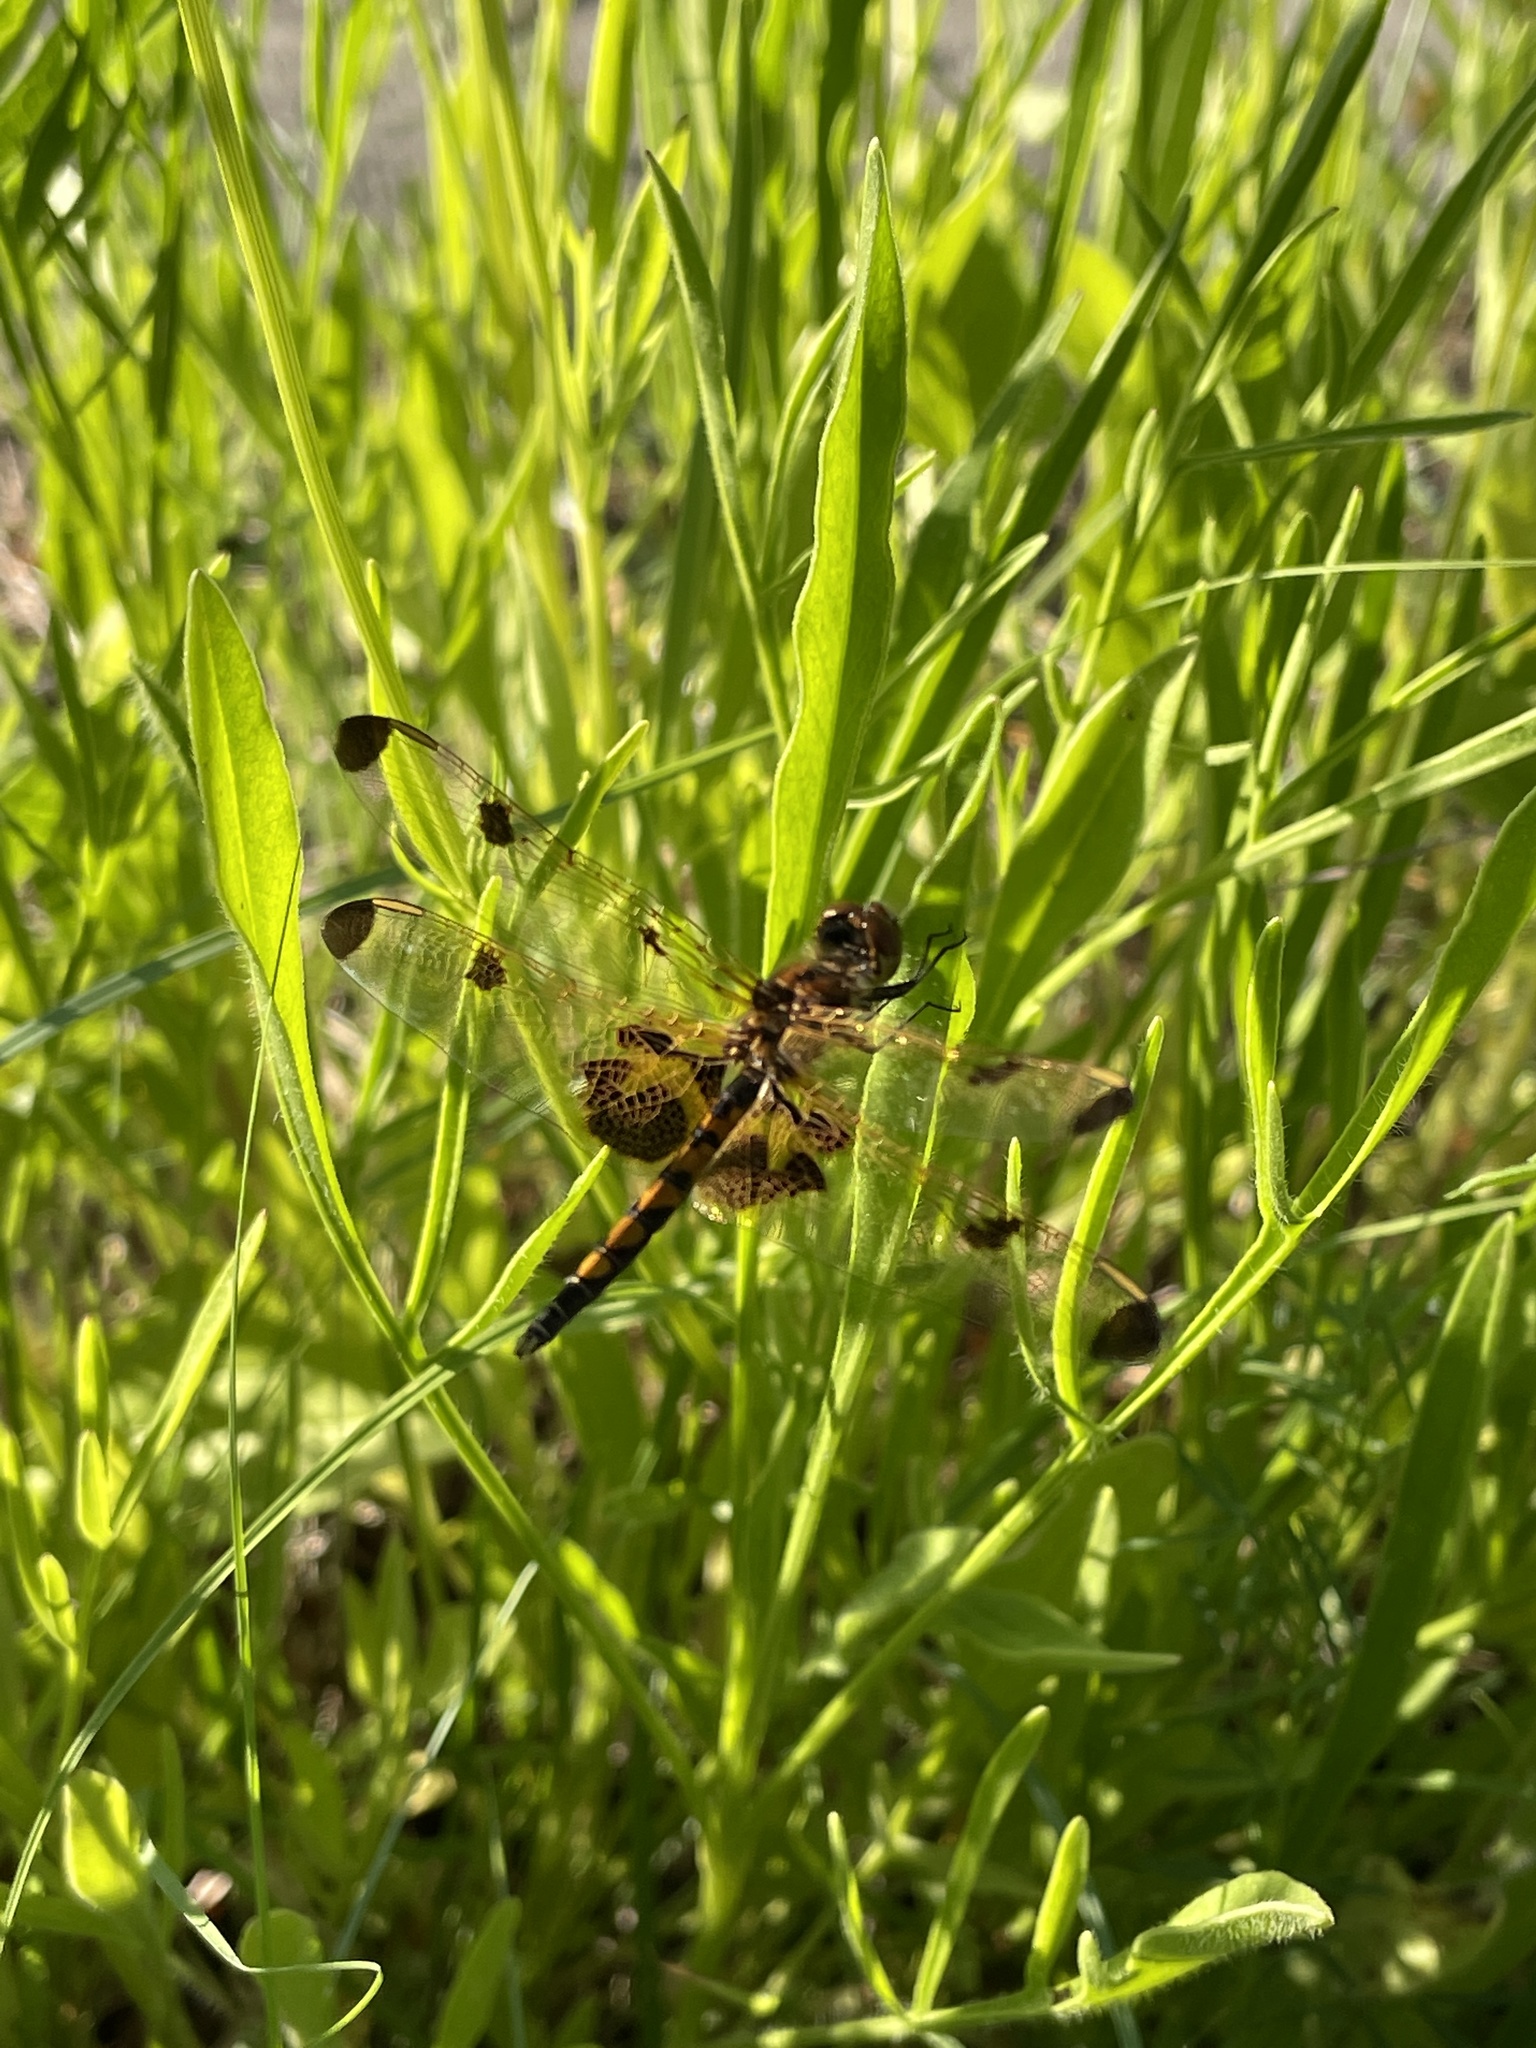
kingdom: Animalia
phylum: Arthropoda
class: Insecta
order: Odonata
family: Libellulidae
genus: Celithemis
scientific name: Celithemis elisa
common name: Calico pennant
